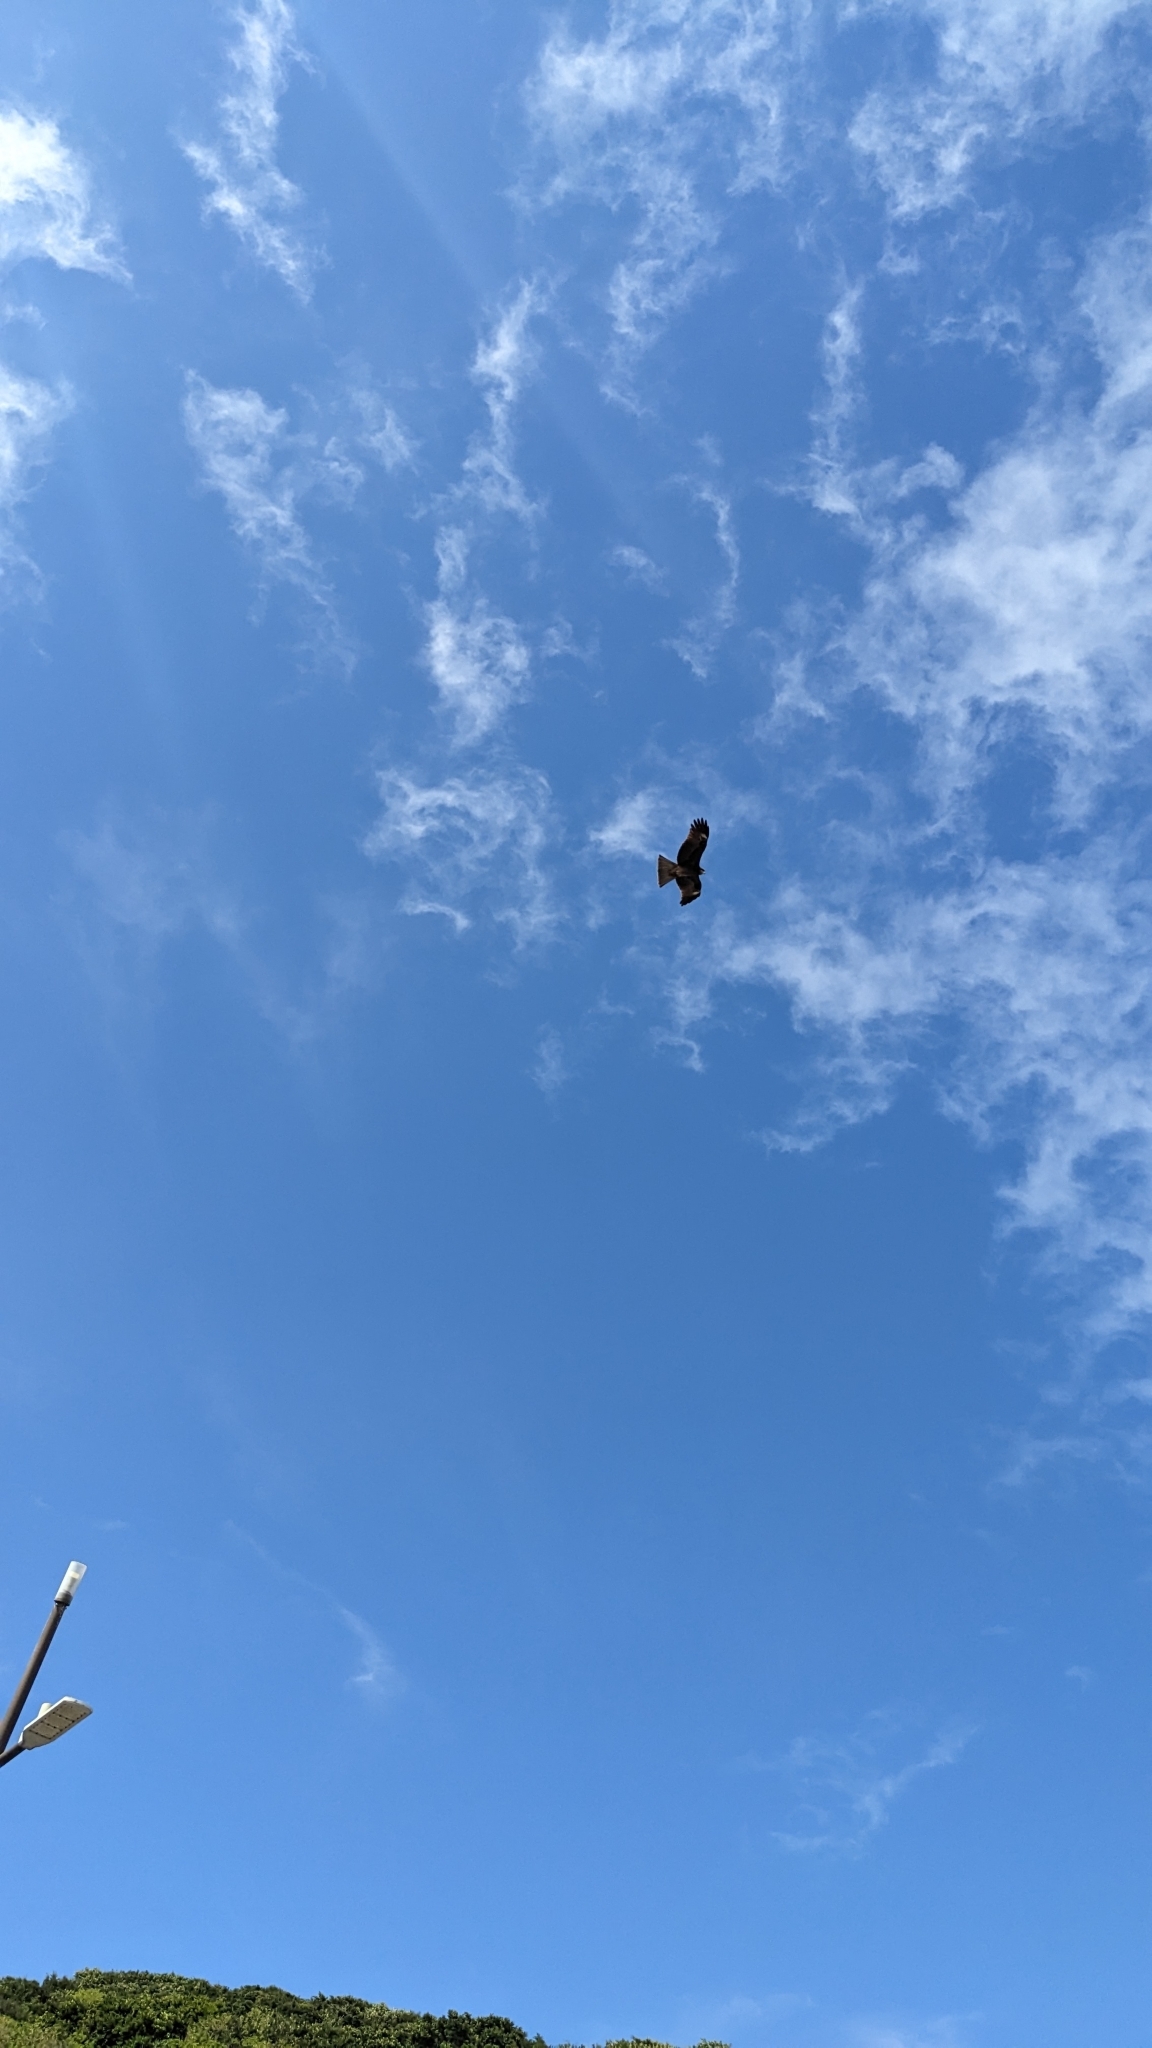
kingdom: Animalia
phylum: Chordata
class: Aves
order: Accipitriformes
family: Accipitridae
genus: Milvus
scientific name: Milvus migrans
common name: Black kite
